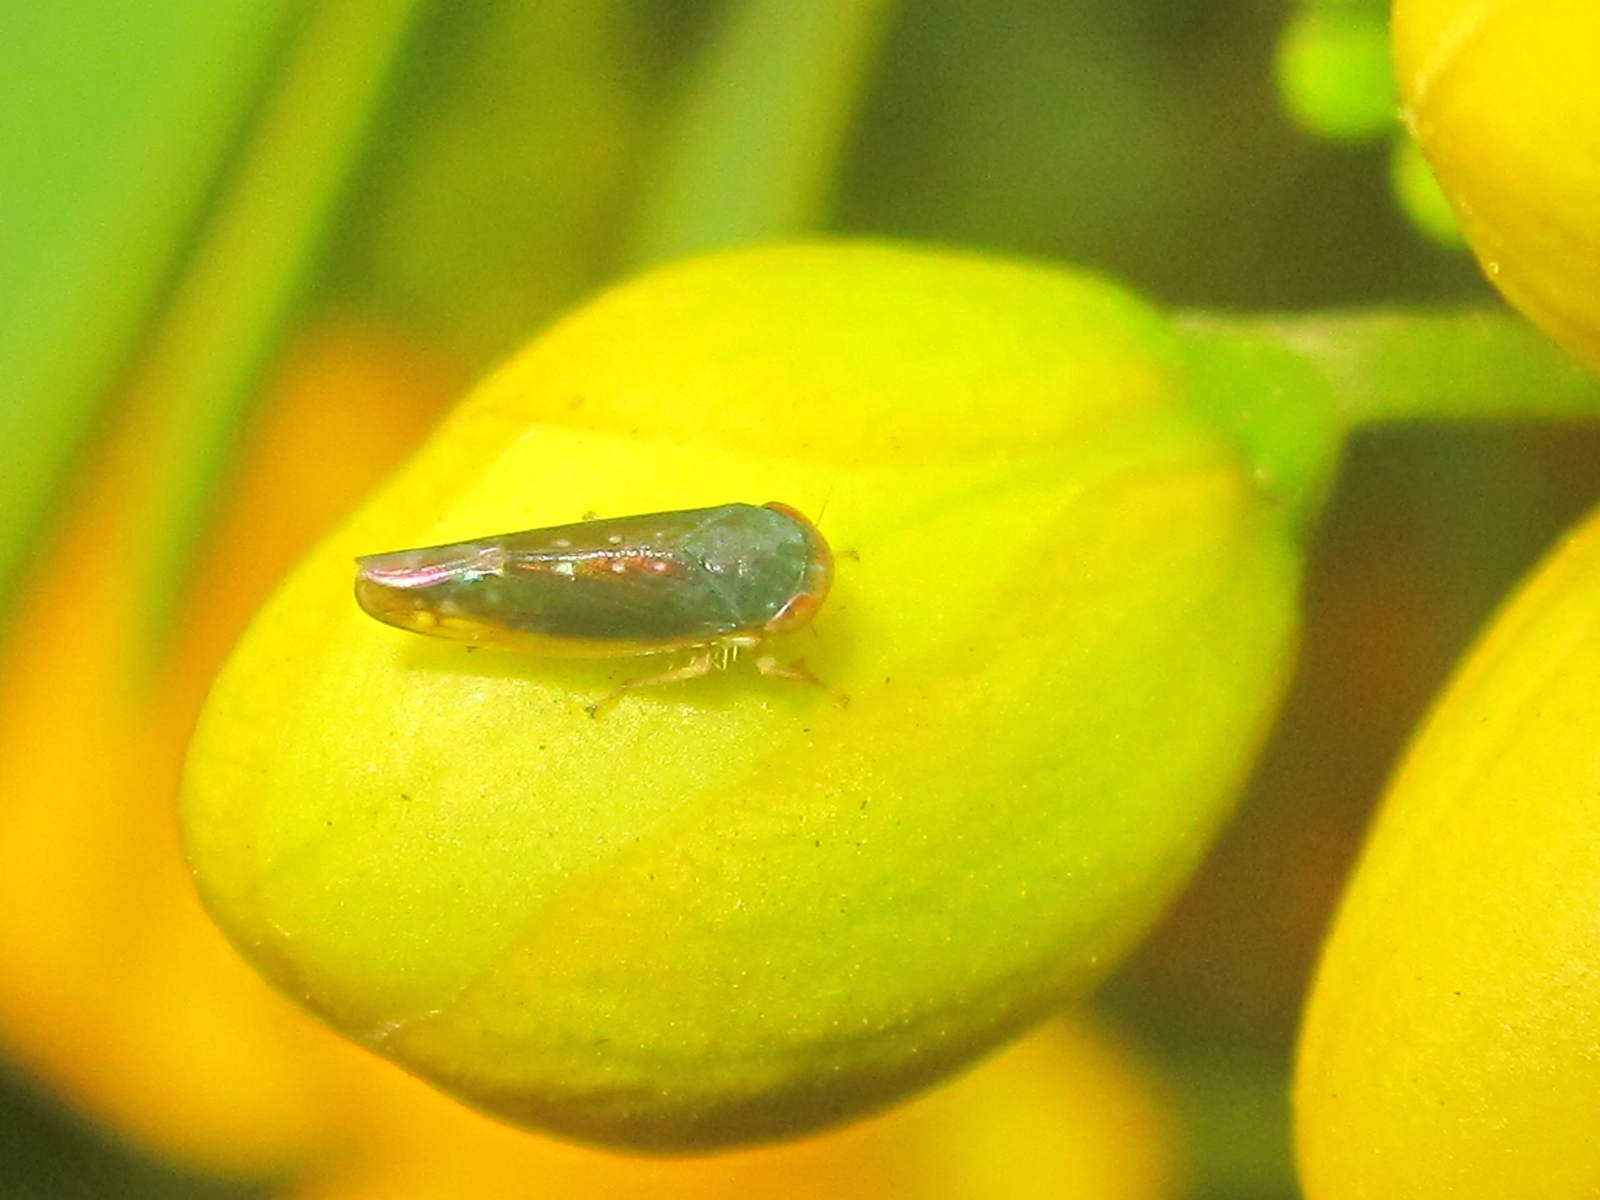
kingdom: Animalia
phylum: Arthropoda
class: Insecta
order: Hemiptera
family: Cicadellidae
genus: Paratanus
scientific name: Paratanus rotundiceps
